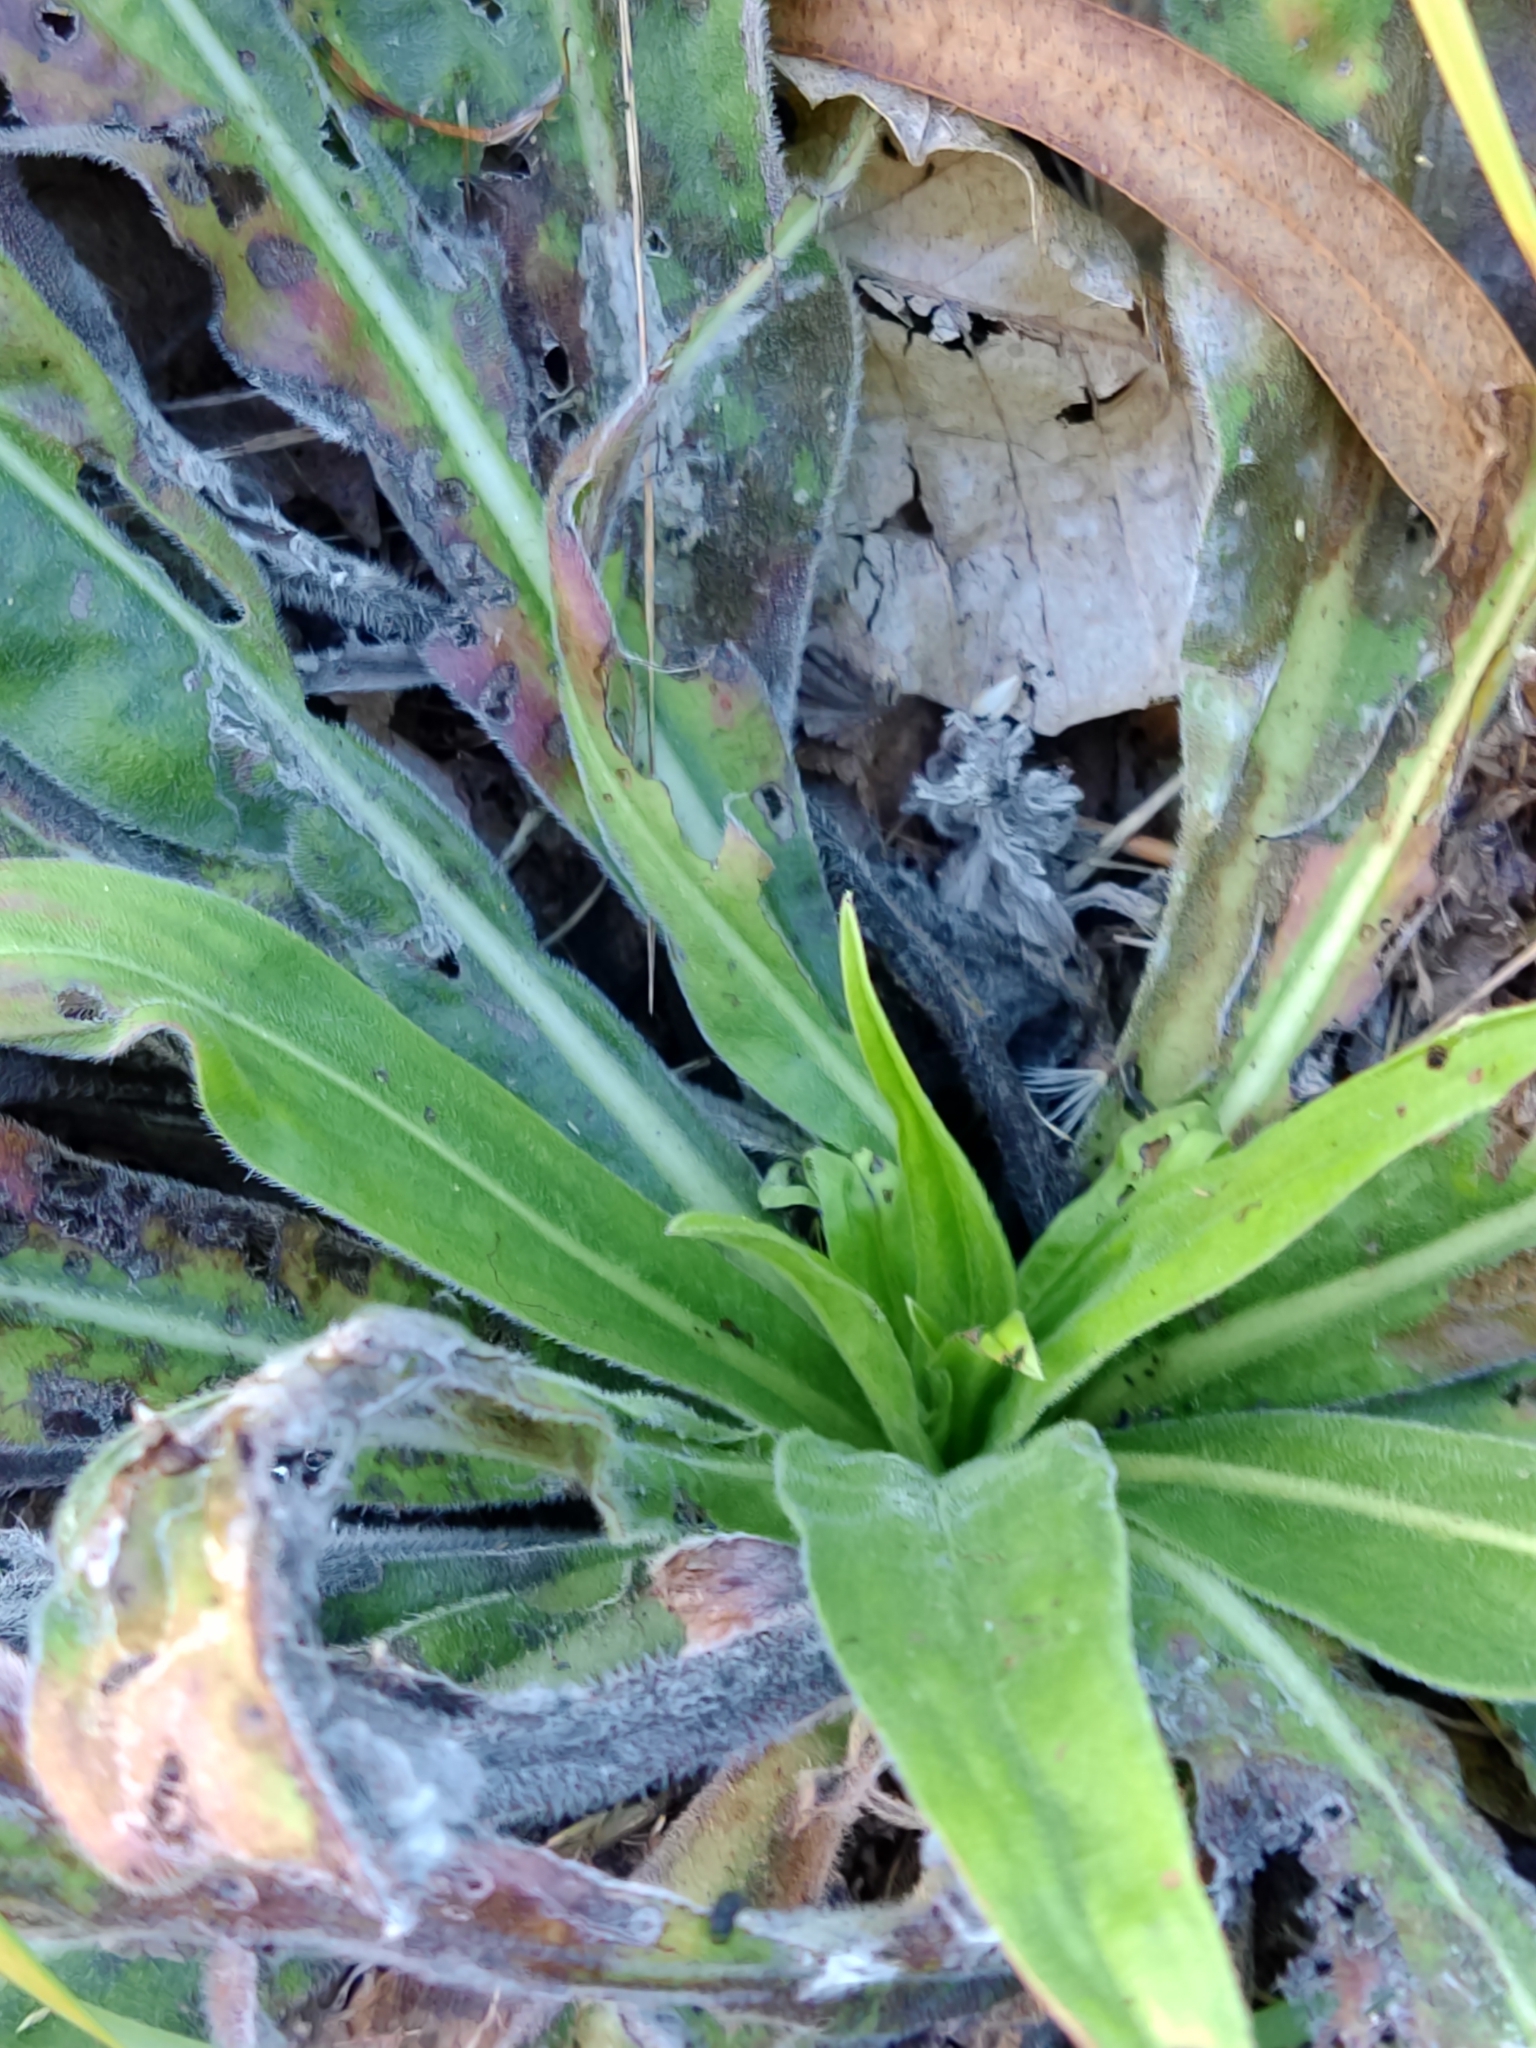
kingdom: Plantae
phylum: Tracheophyta
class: Magnoliopsida
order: Boraginales
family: Boraginaceae
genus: Echium
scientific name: Echium lusitanicum
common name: Violet-vein viper's bugloss
